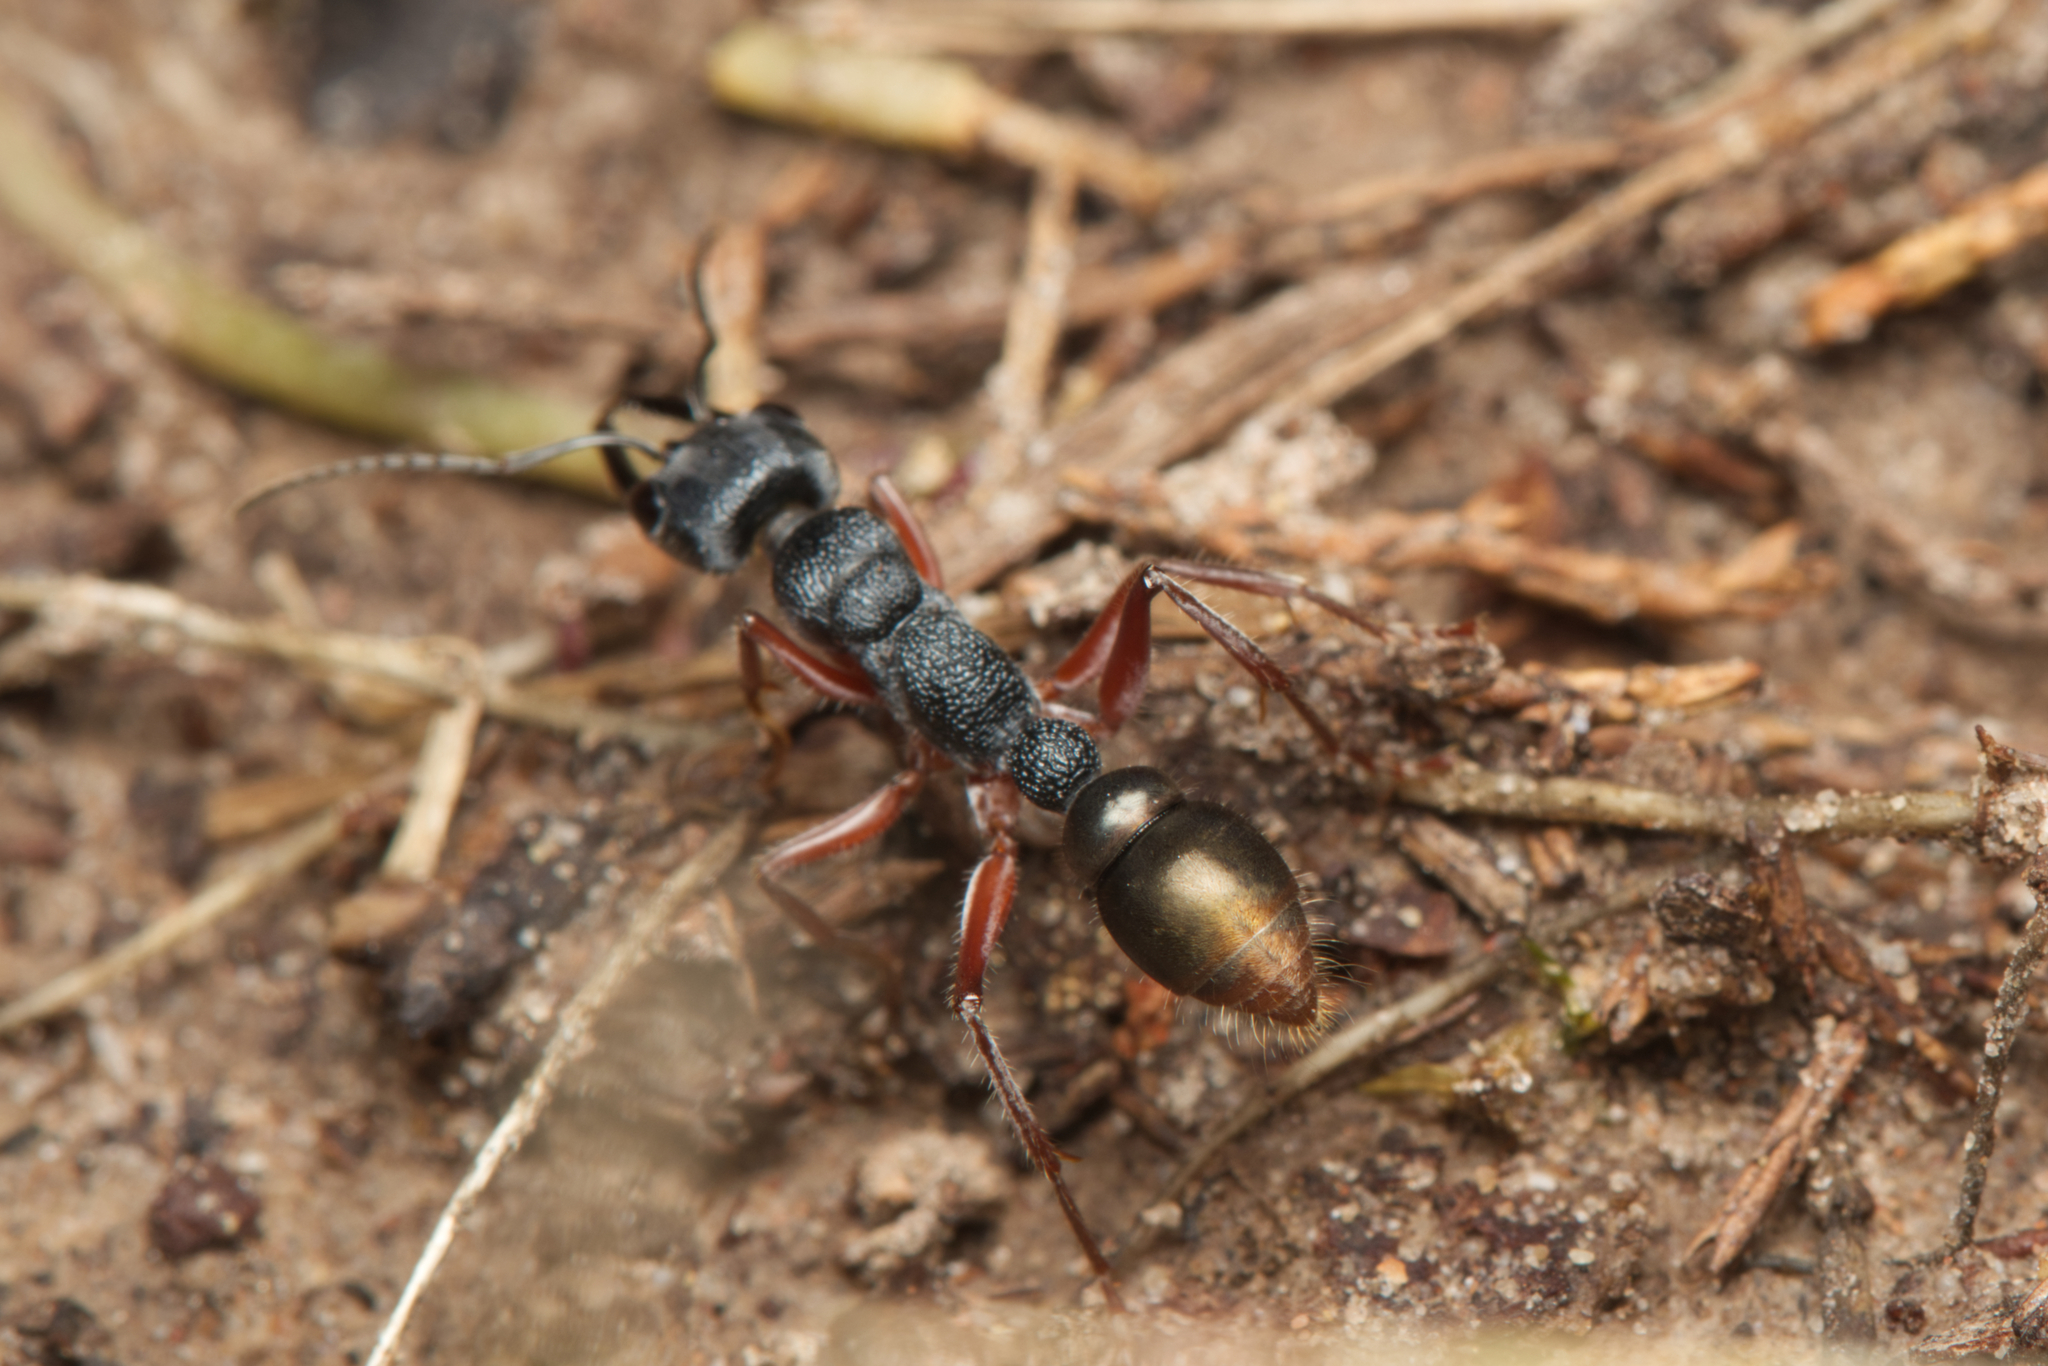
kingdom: Animalia
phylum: Arthropoda
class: Insecta
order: Hymenoptera
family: Formicidae
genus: Myrmecia
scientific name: Myrmecia fulviculis
